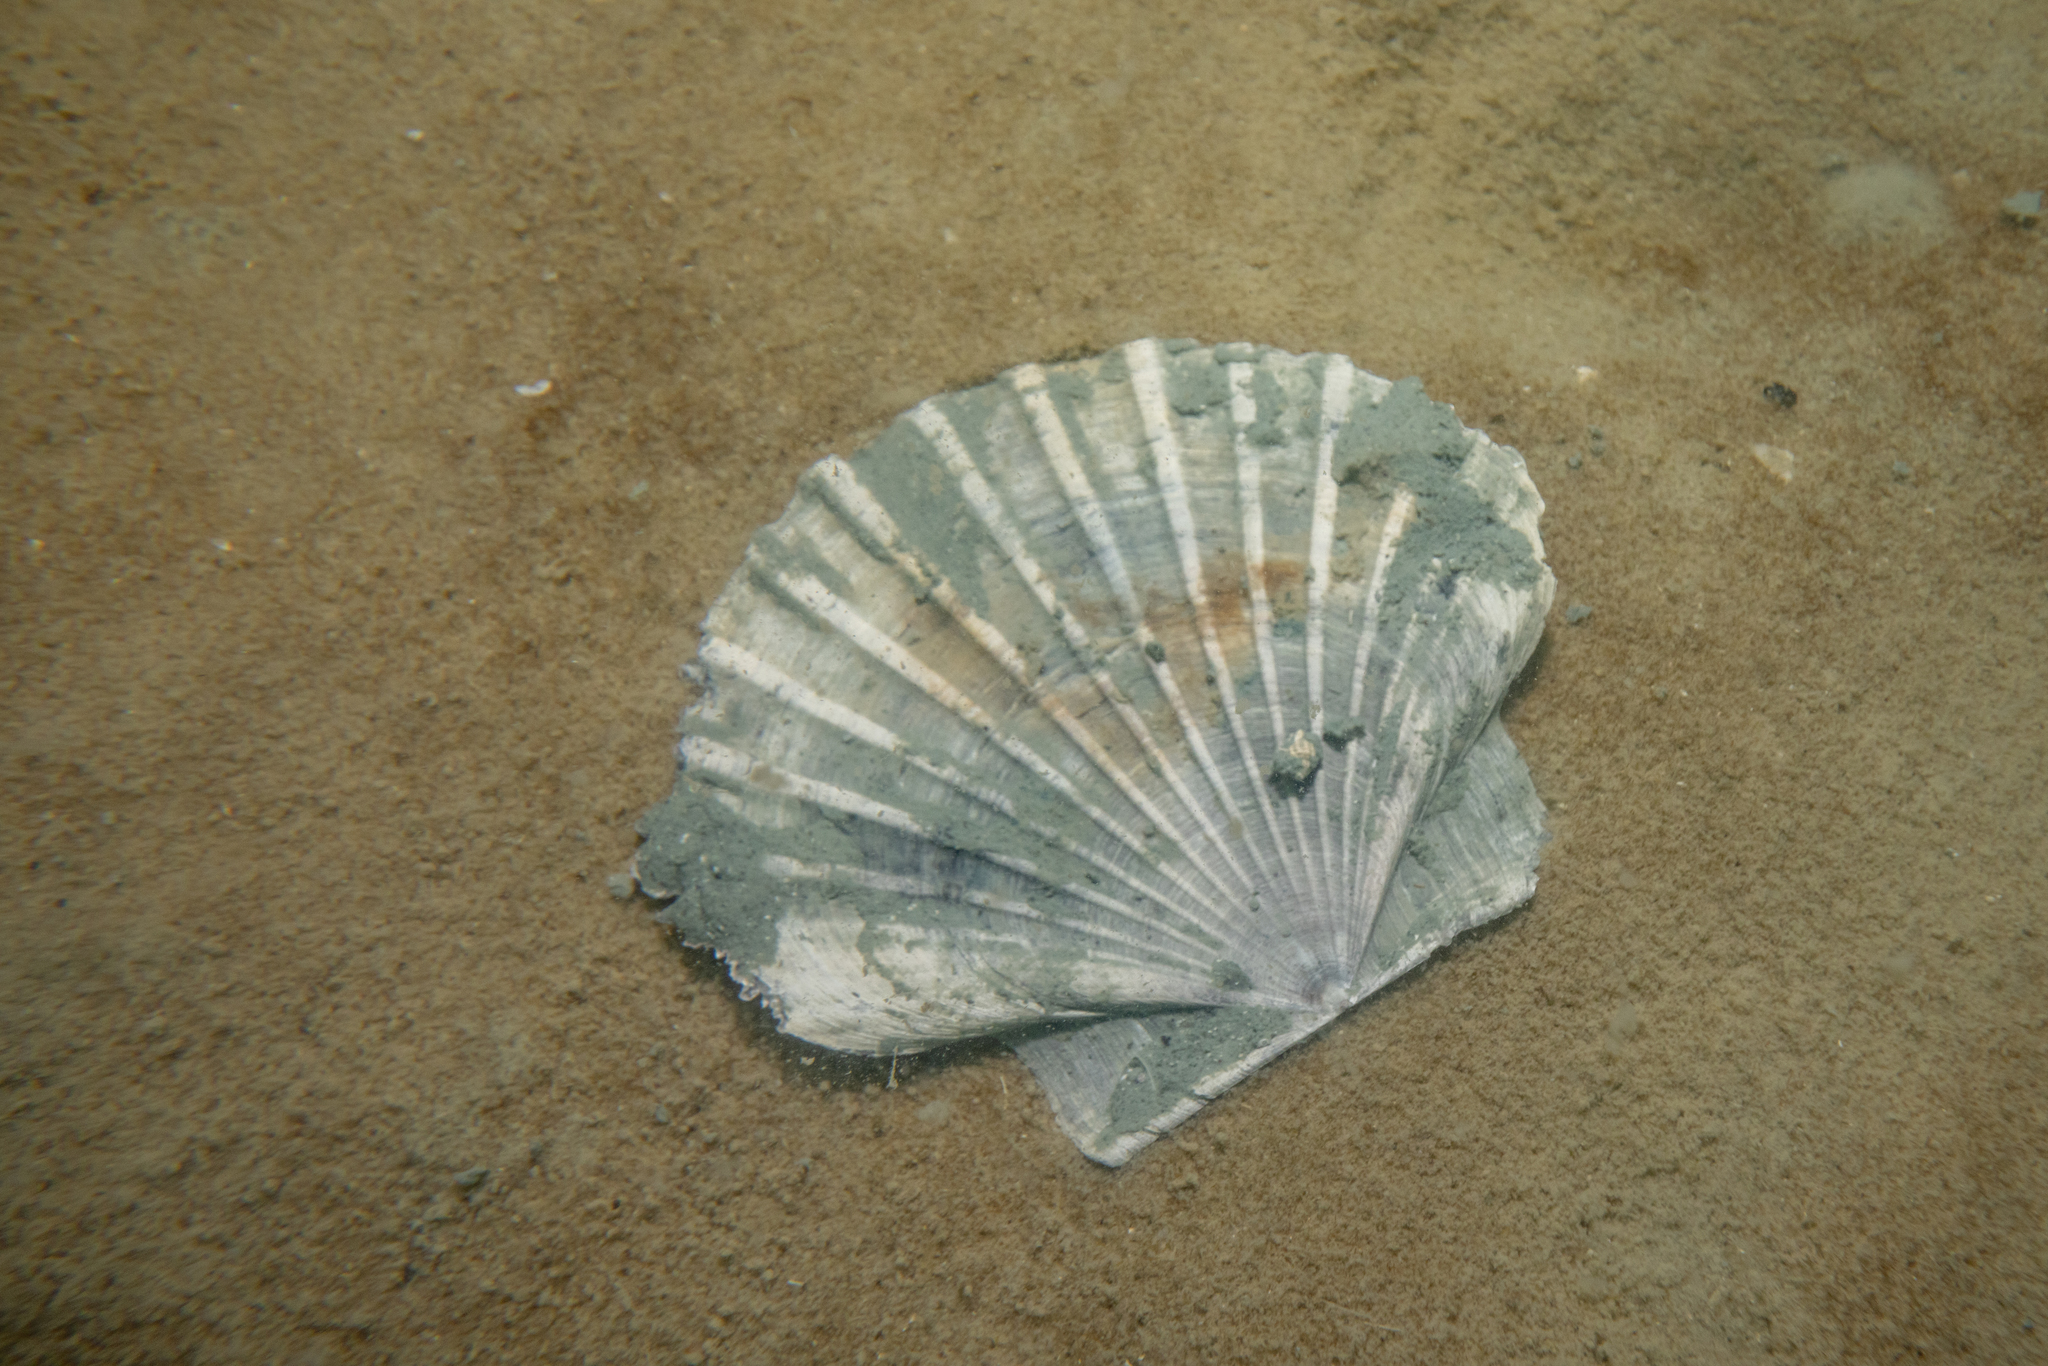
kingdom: Animalia
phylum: Mollusca
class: Bivalvia
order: Pectinida
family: Pectinidae
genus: Pecten
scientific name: Pecten novaezelandiae
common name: New zealand scallop
